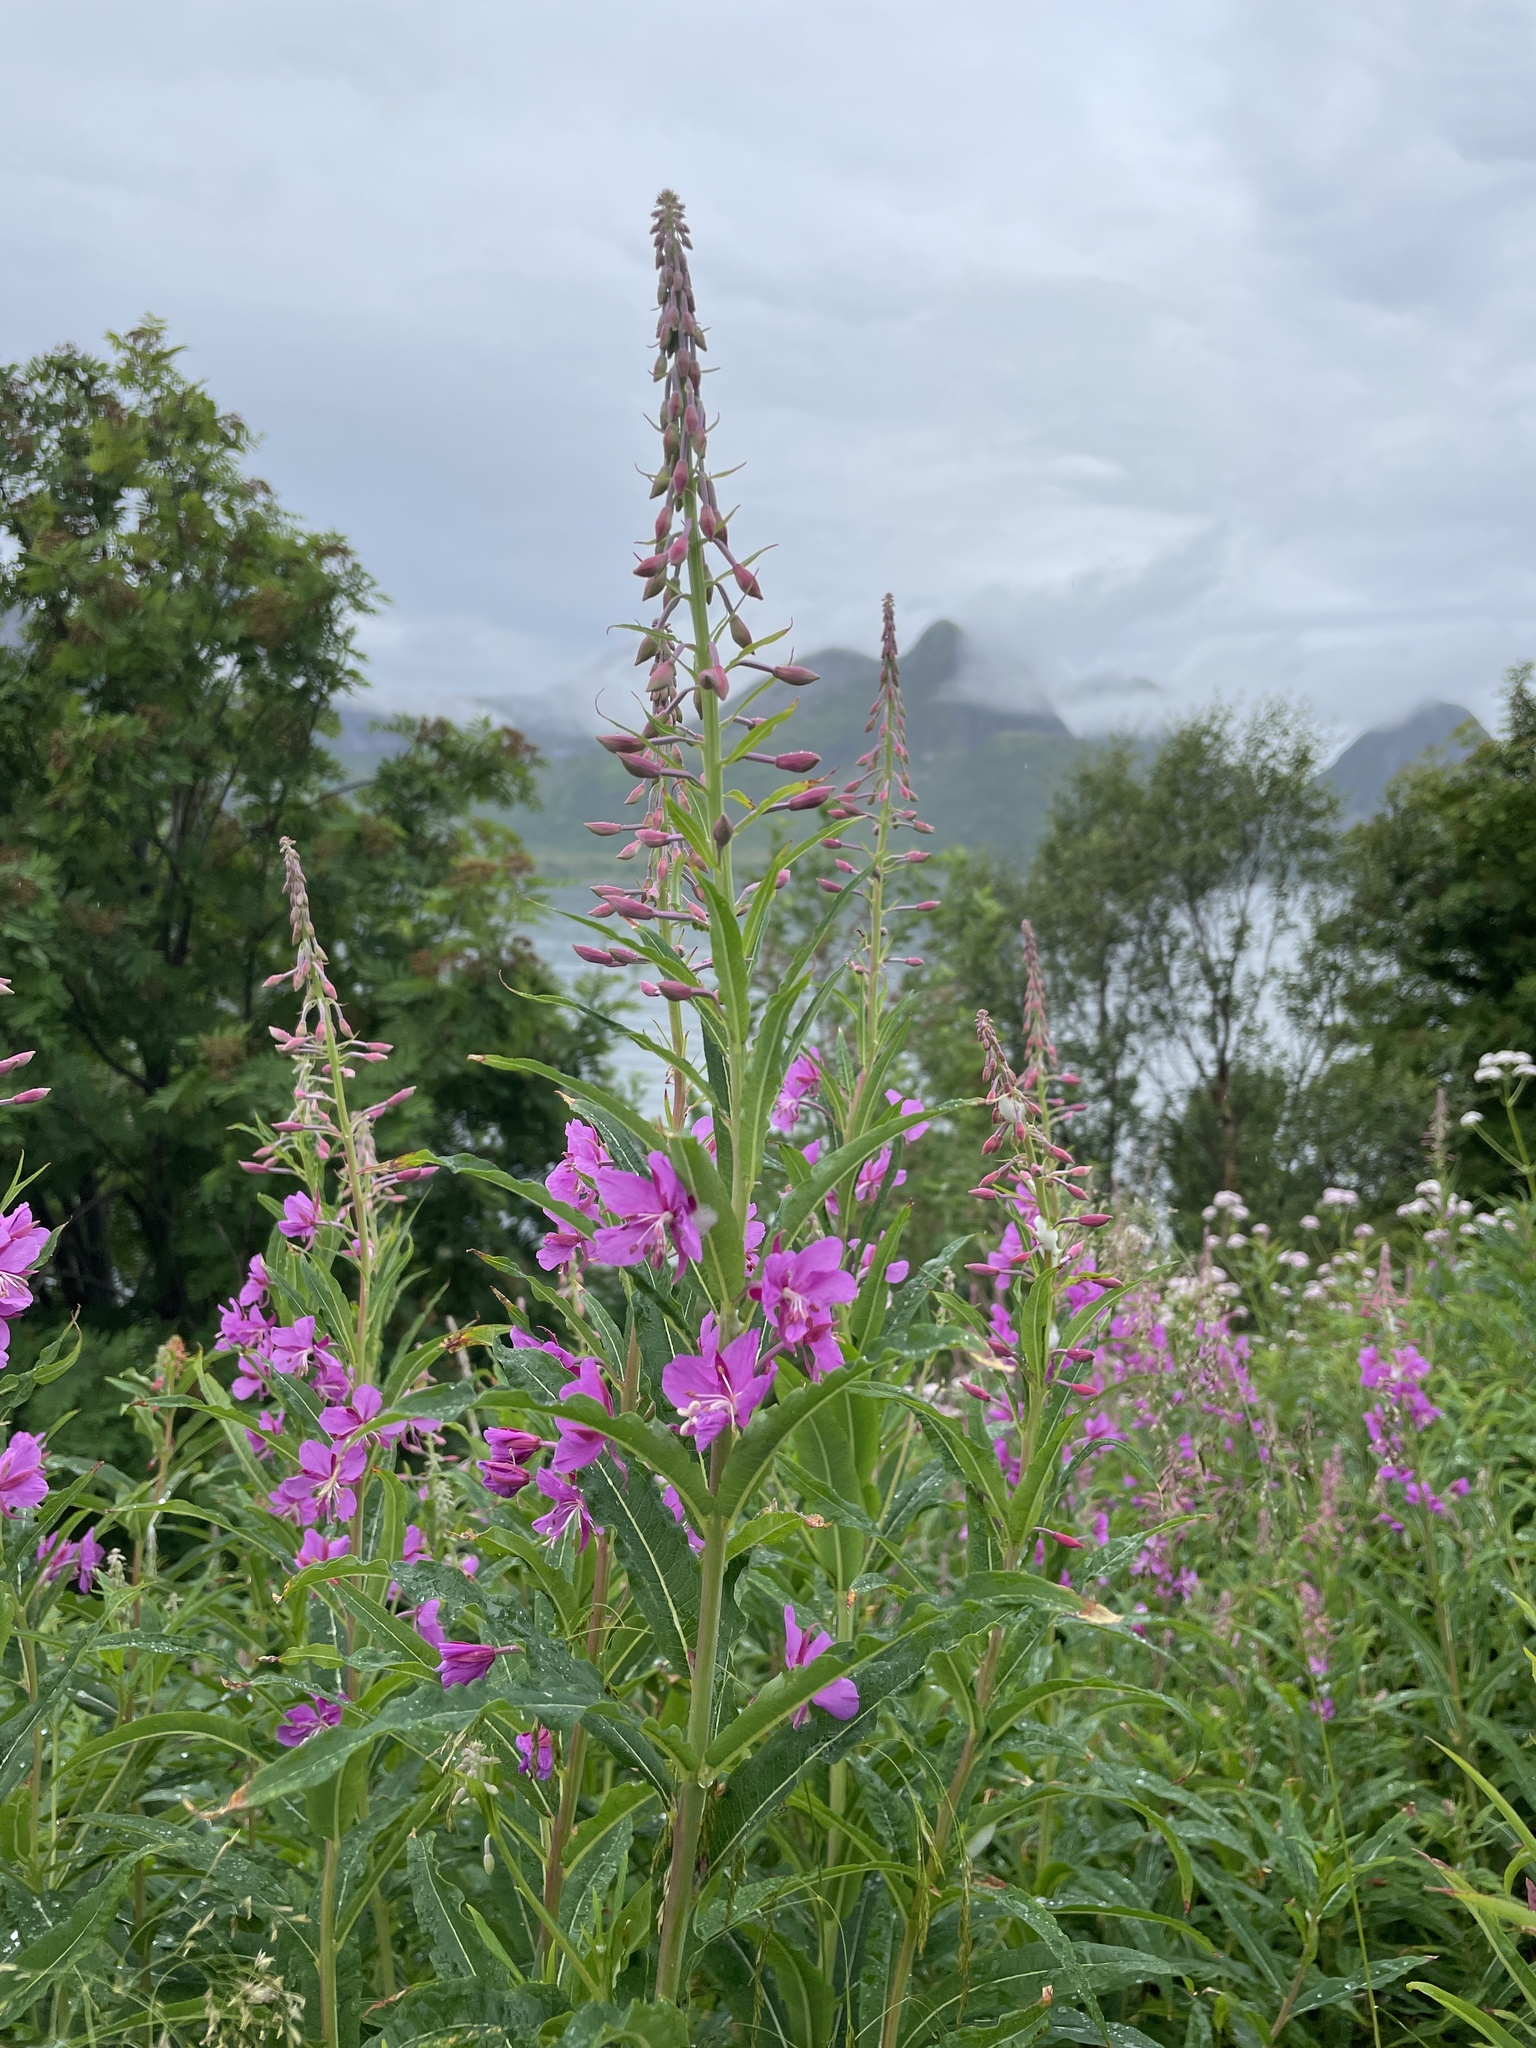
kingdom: Plantae
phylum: Tracheophyta
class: Magnoliopsida
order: Myrtales
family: Onagraceae
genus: Chamaenerion
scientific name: Chamaenerion angustifolium
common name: Fireweed
